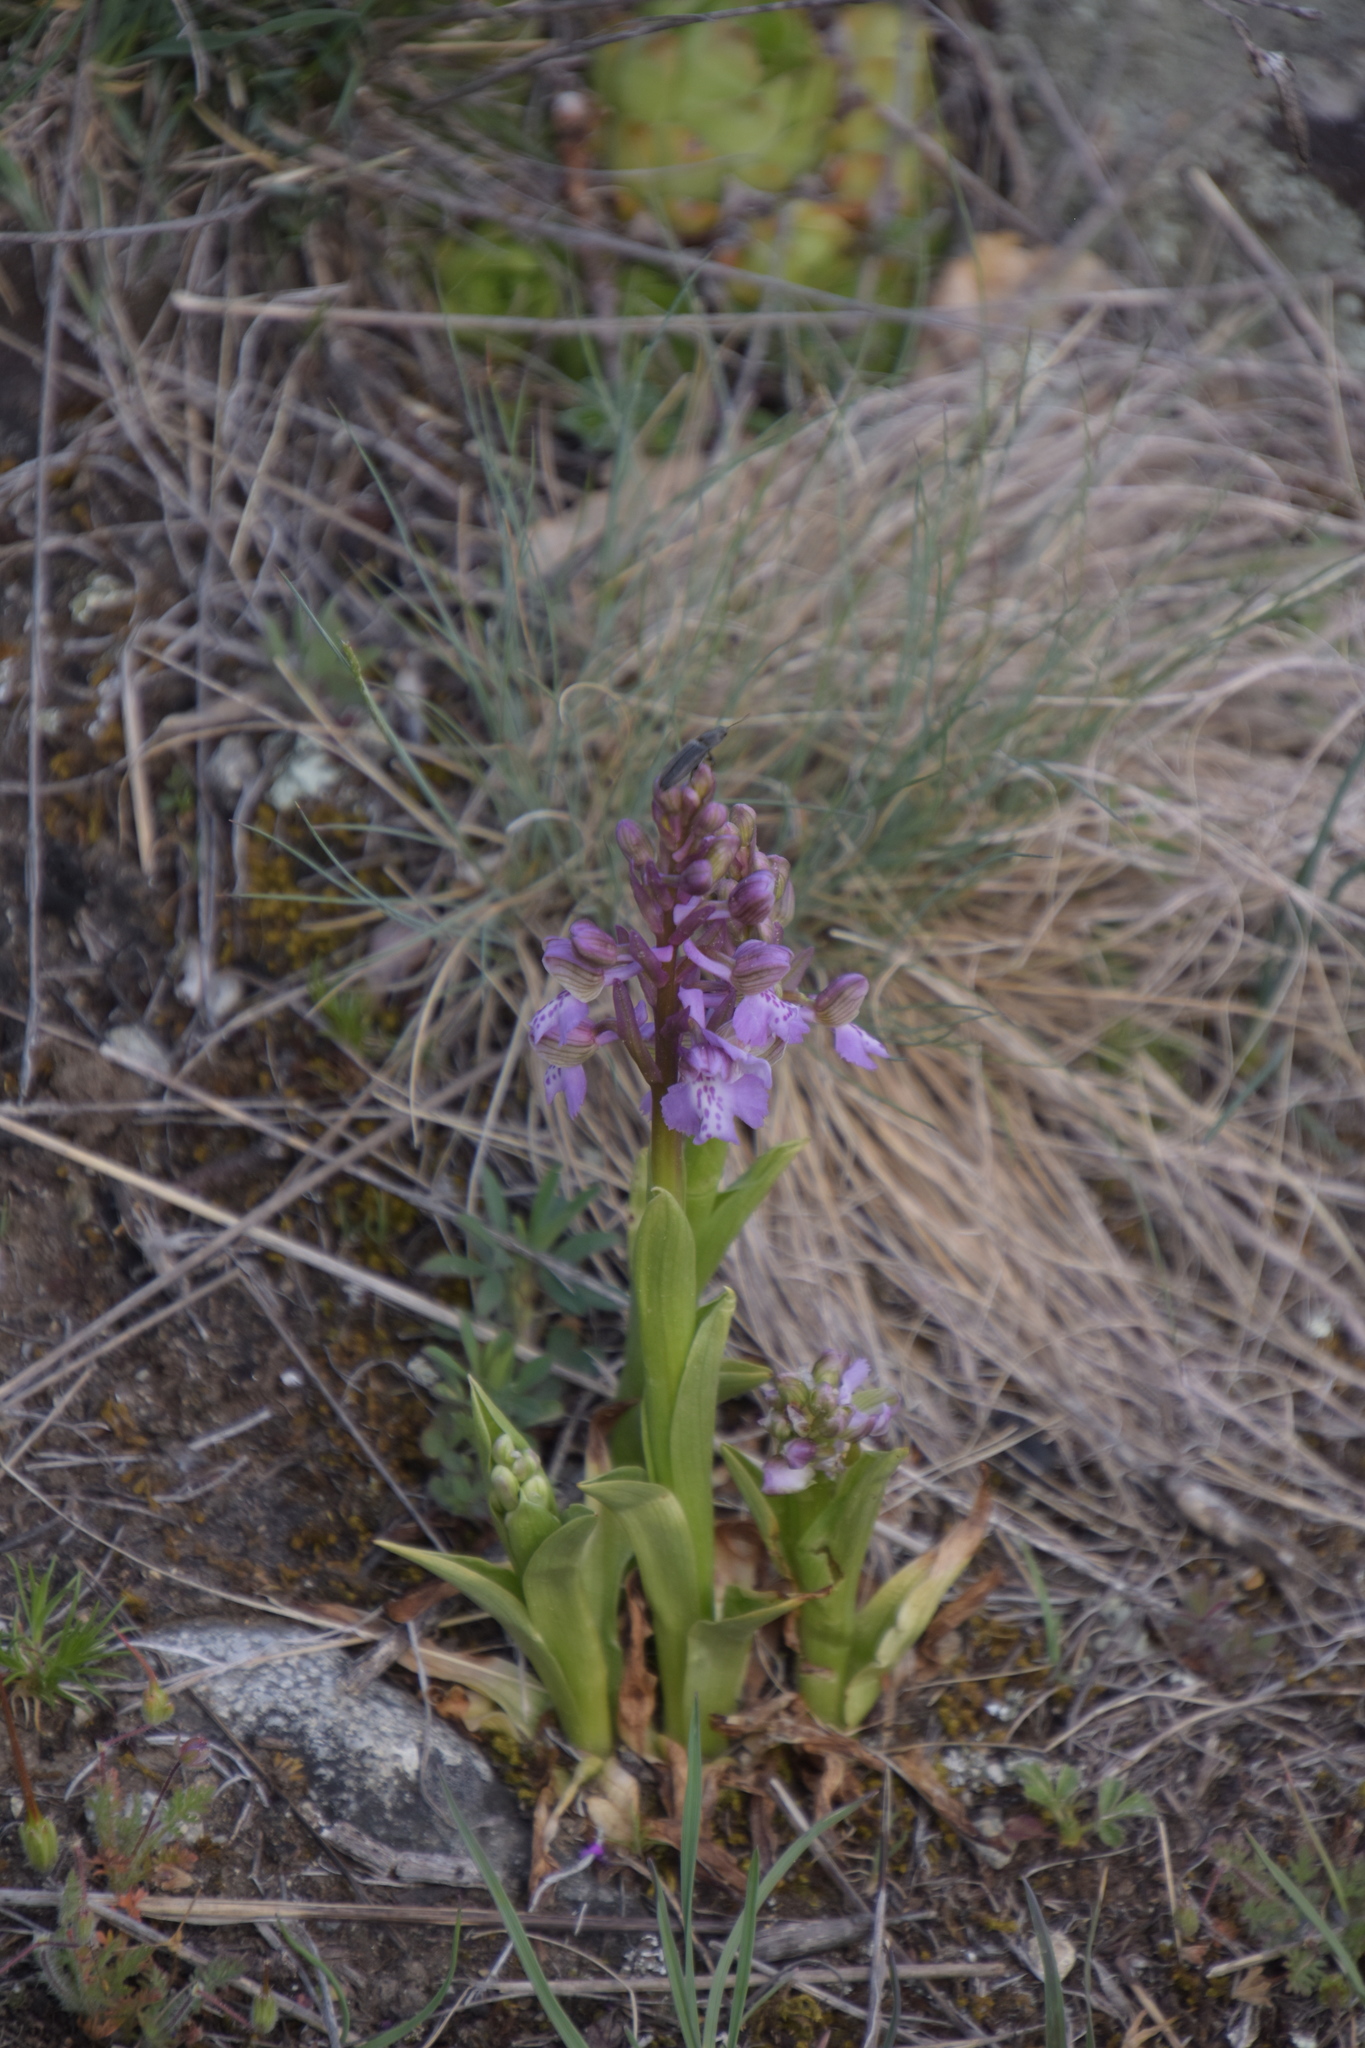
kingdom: Plantae
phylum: Tracheophyta
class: Liliopsida
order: Asparagales
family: Orchidaceae
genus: Anacamptis
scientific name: Anacamptis morio
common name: Green-winged orchid
